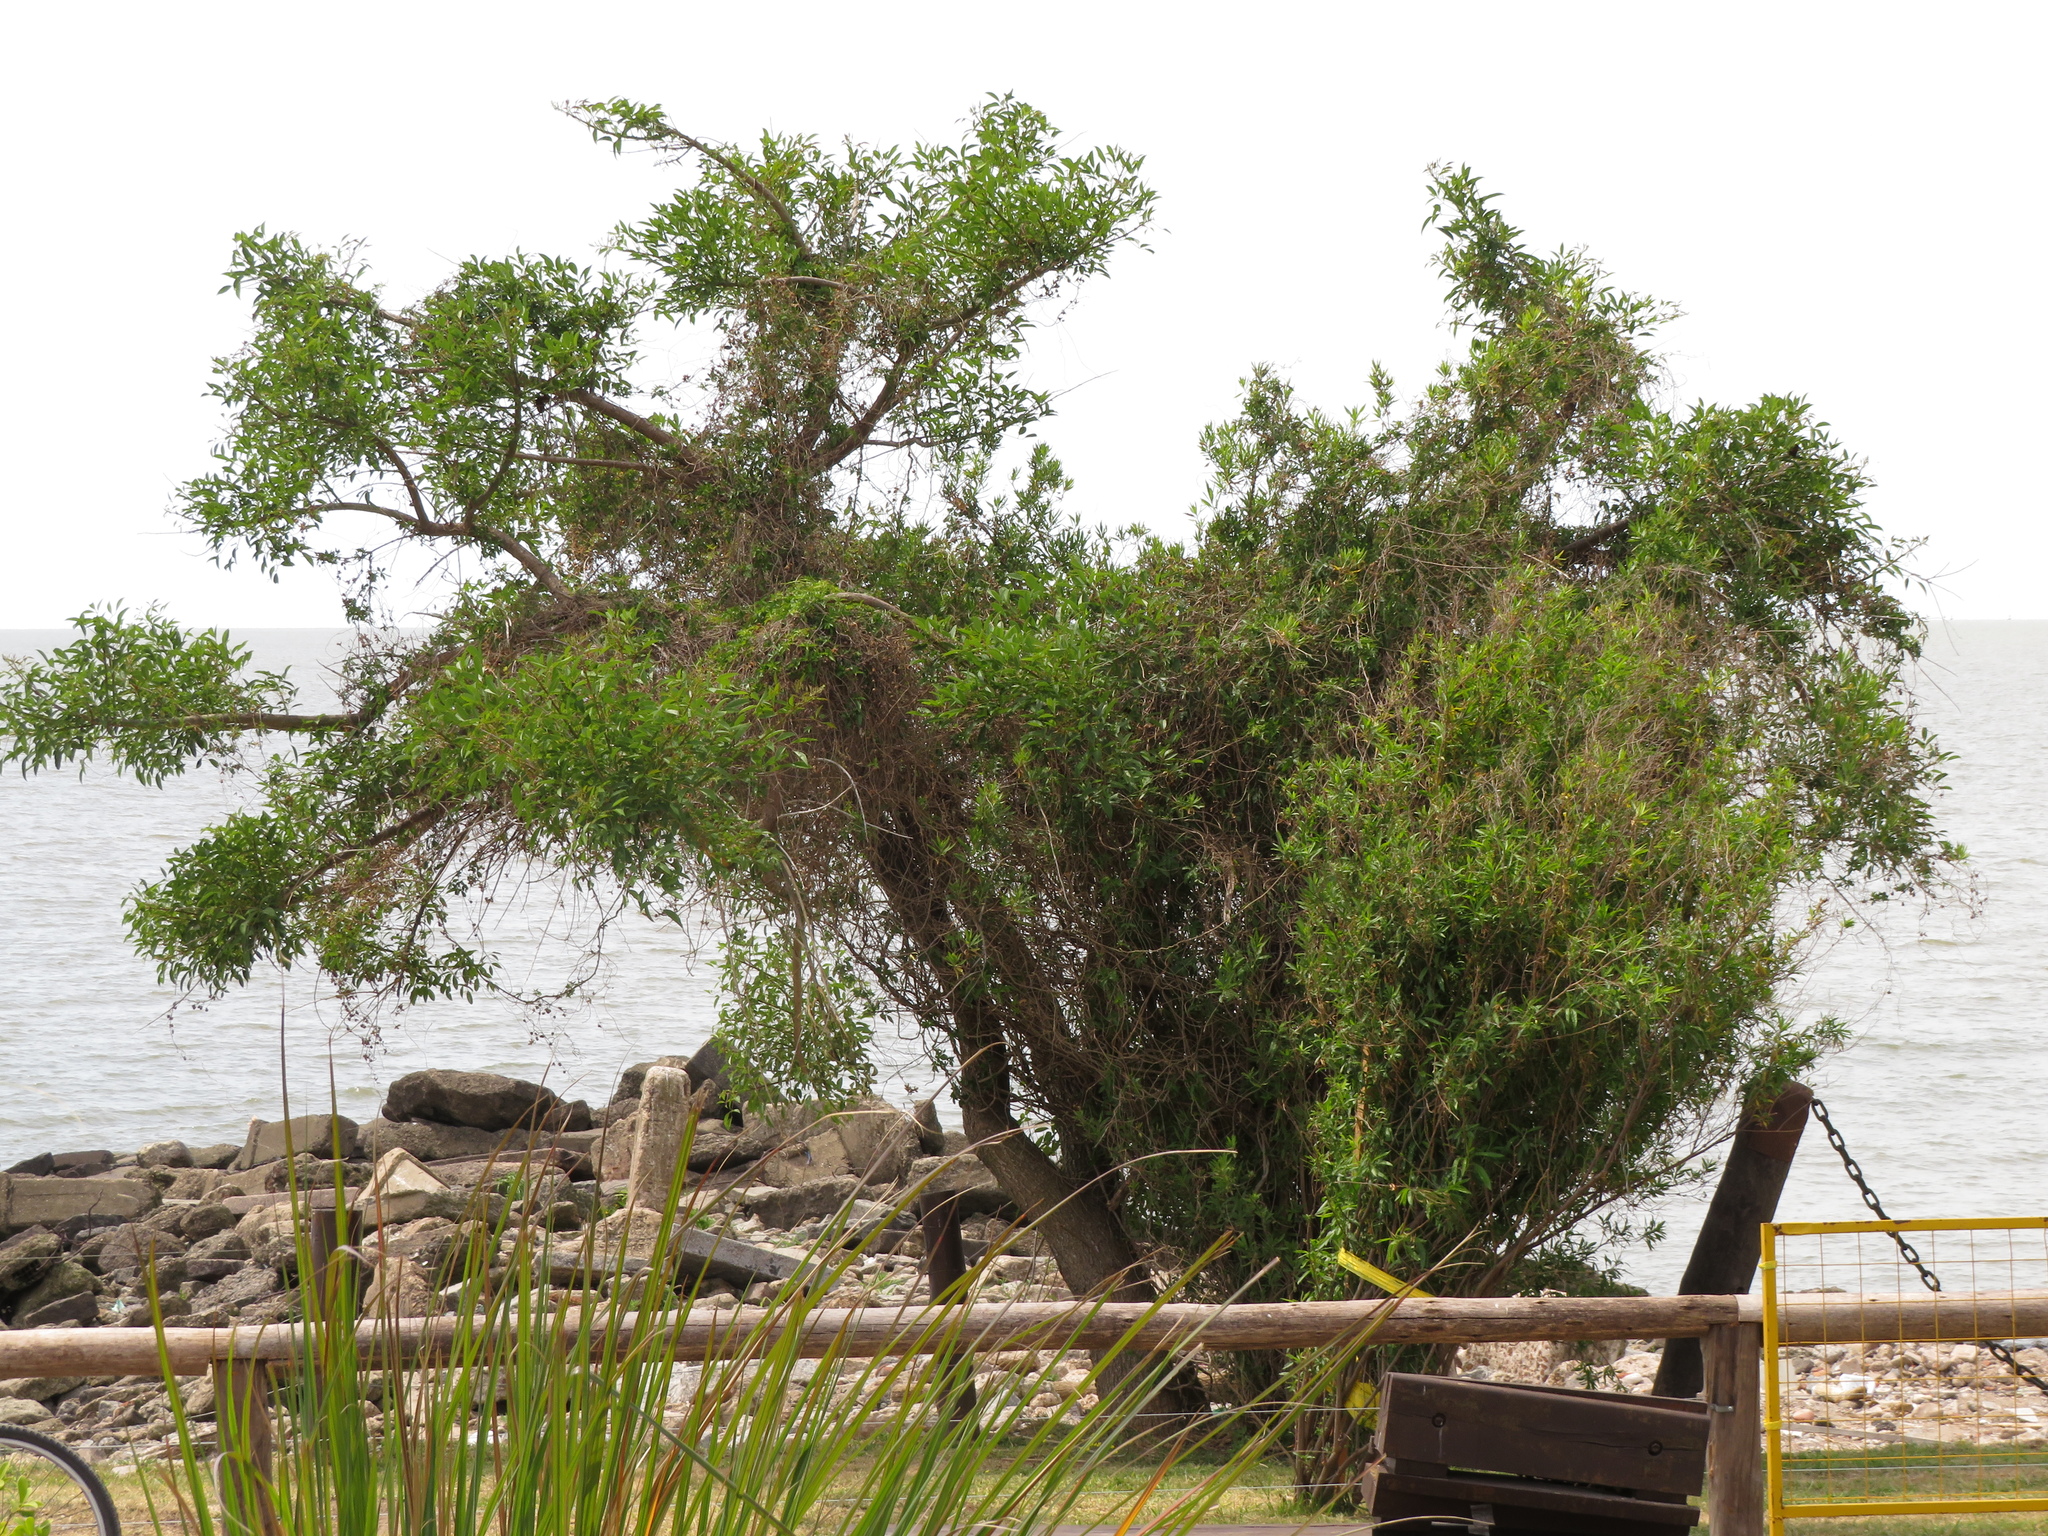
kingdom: Plantae
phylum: Tracheophyta
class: Magnoliopsida
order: Fabales
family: Fabaceae
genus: Erythrina
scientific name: Erythrina crista-galli
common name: Cockspur coral tree
